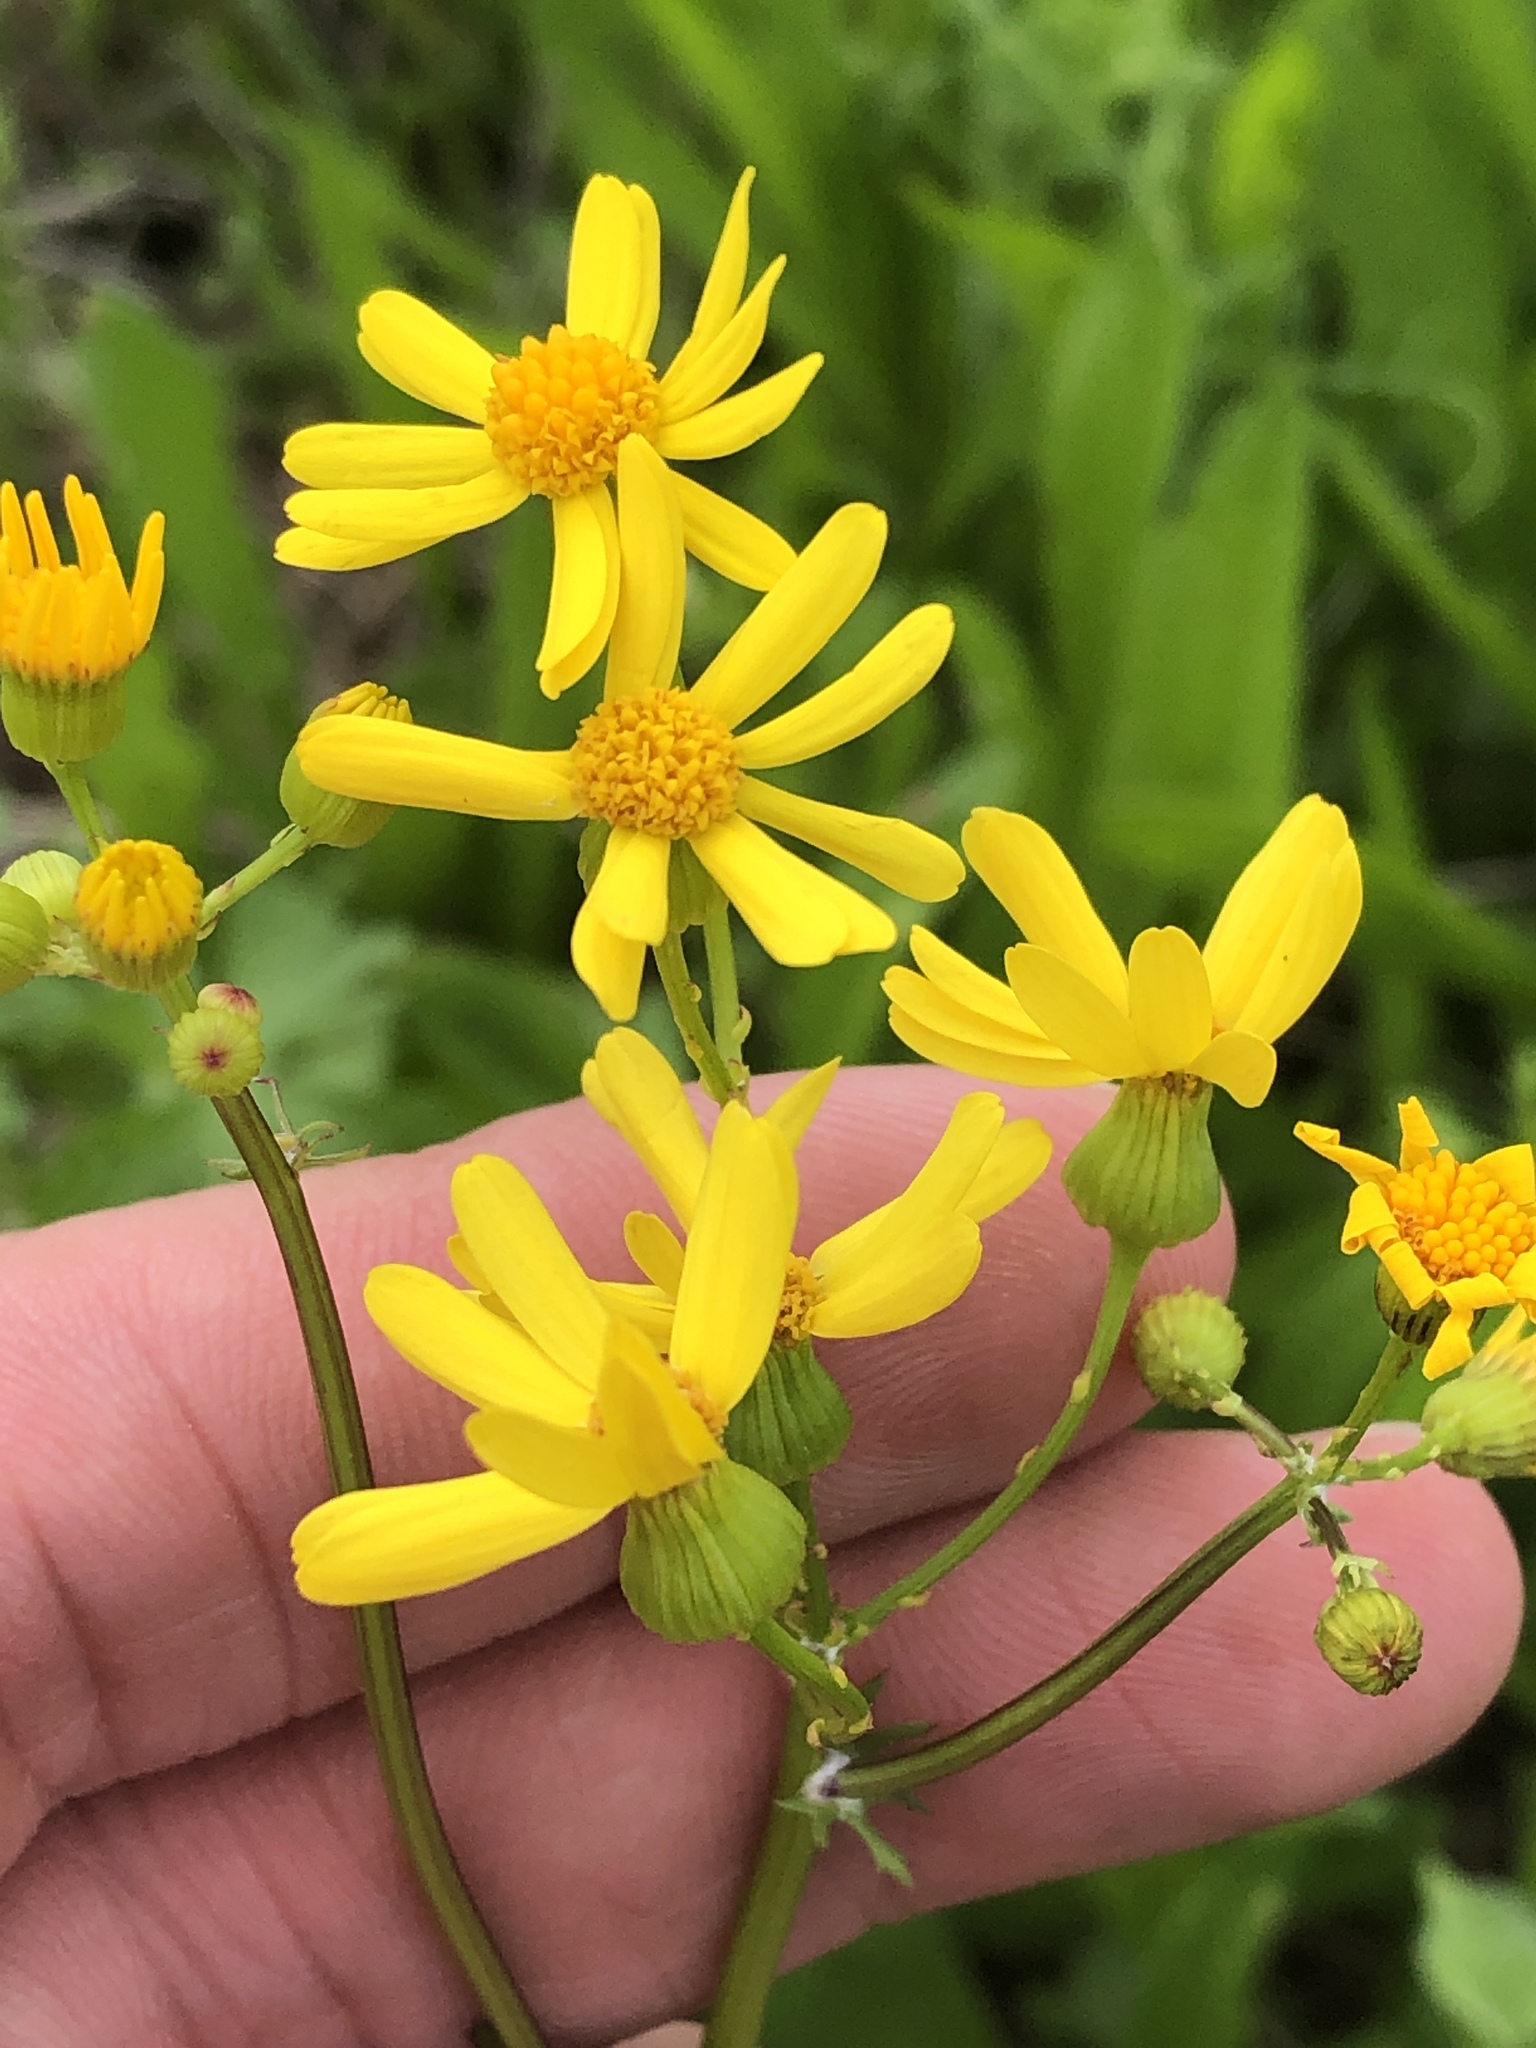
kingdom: Plantae
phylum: Tracheophyta
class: Magnoliopsida
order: Asterales
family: Asteraceae
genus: Packera
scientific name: Packera tampicana
